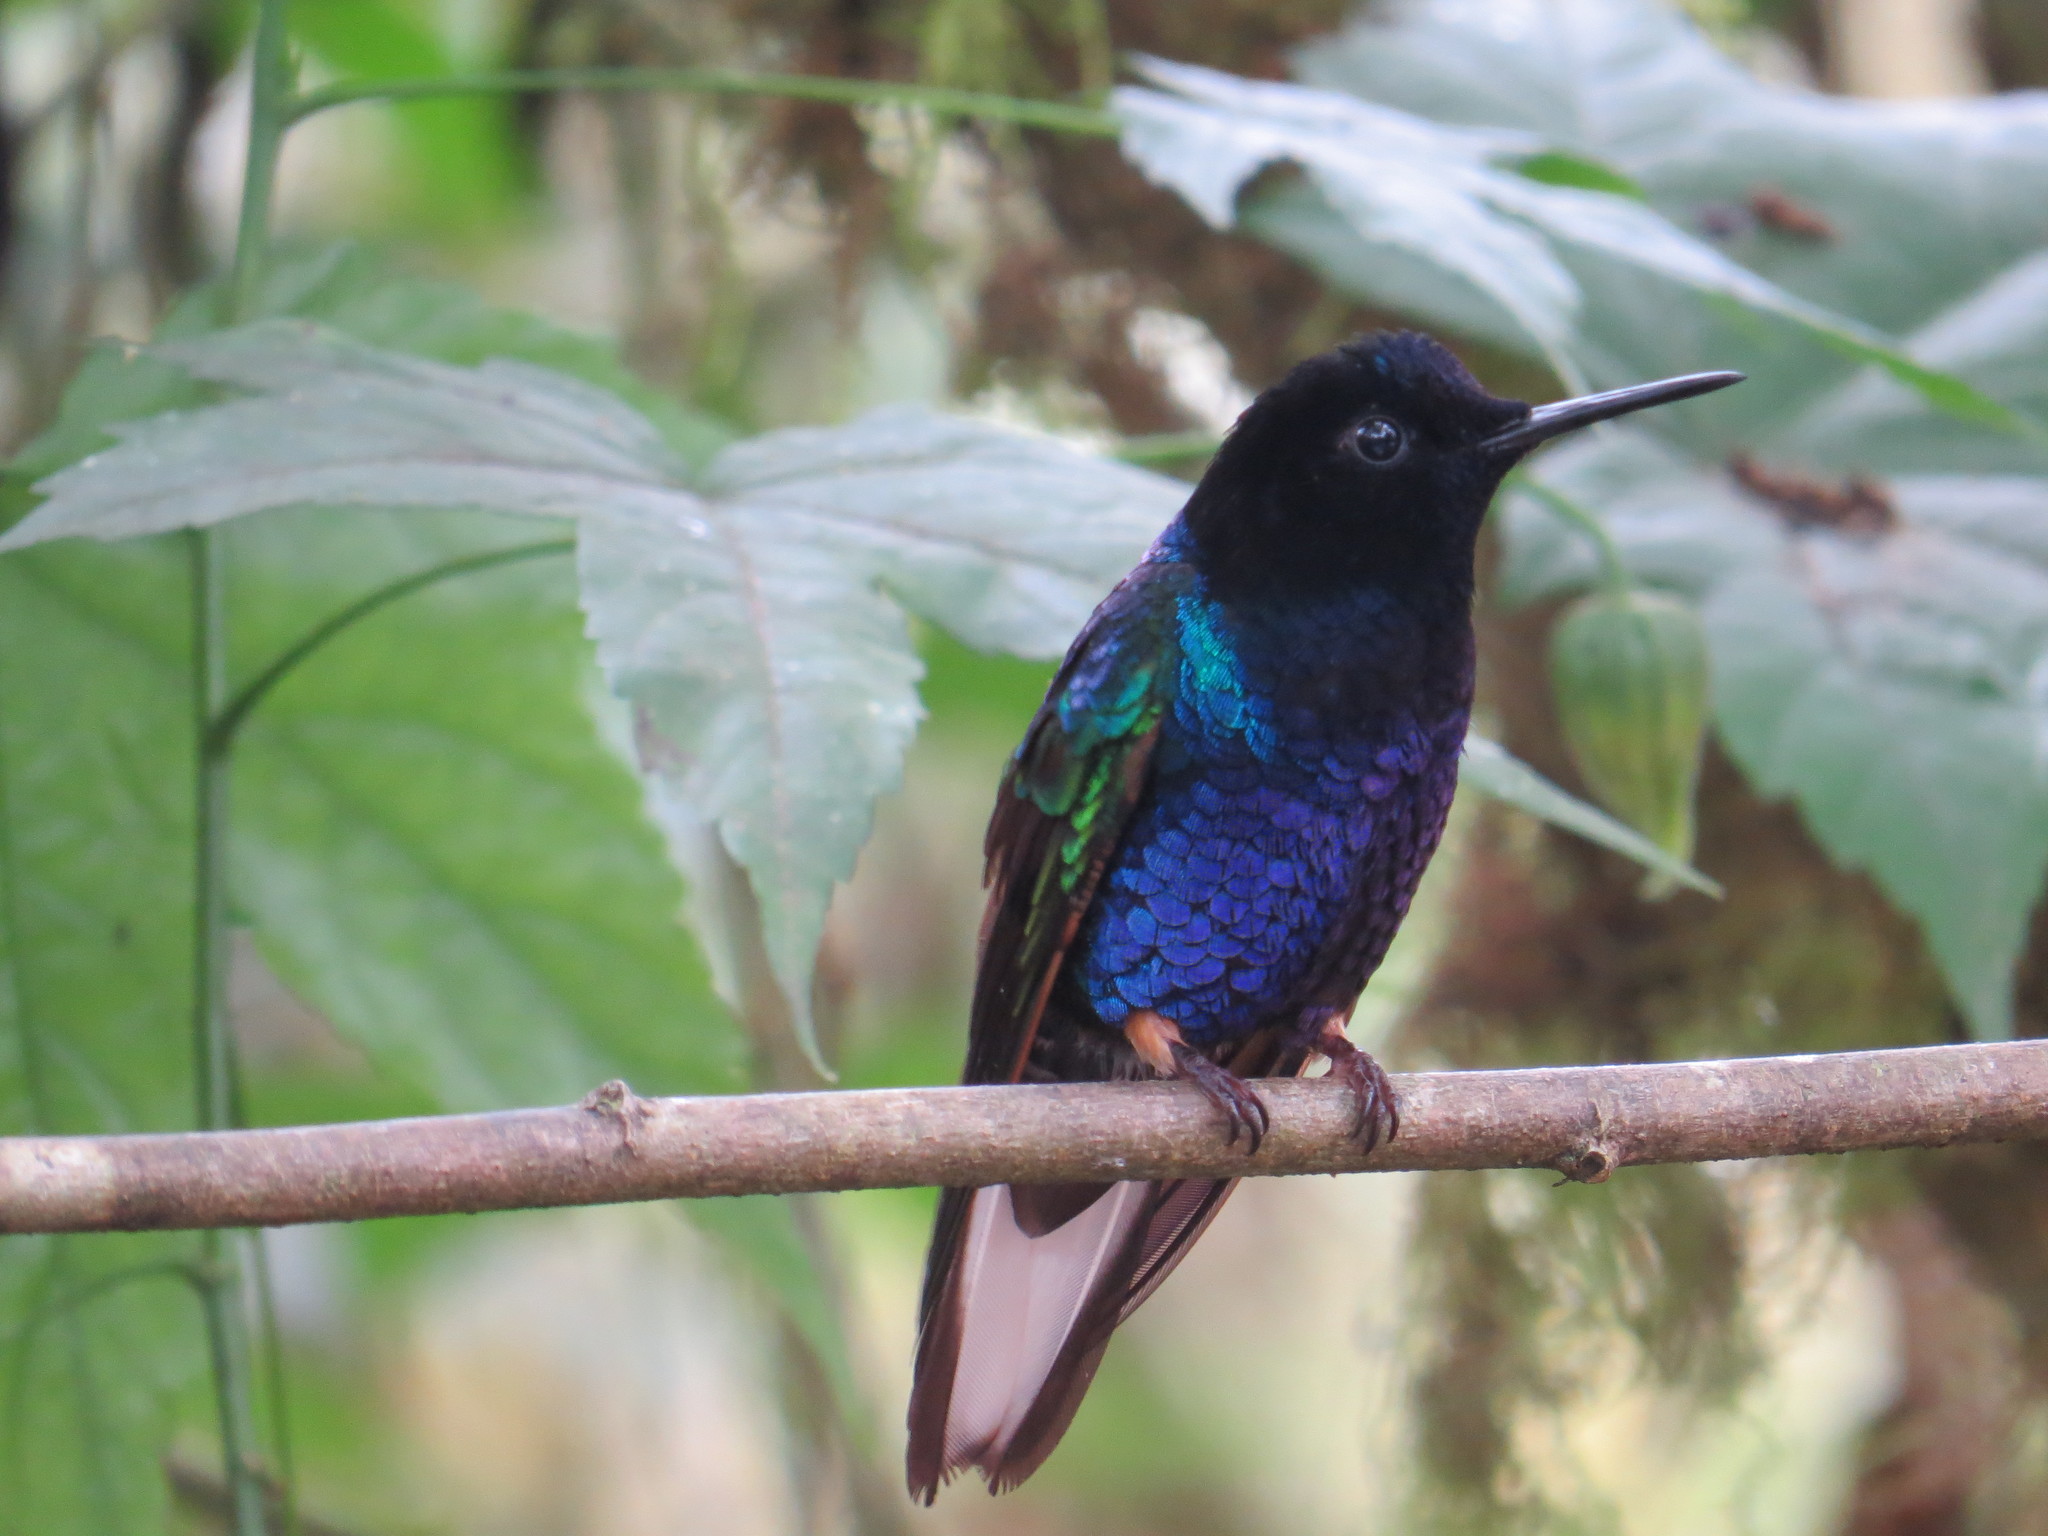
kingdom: Animalia
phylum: Chordata
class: Aves
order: Apodiformes
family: Trochilidae
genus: Boissonneaua
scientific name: Boissonneaua jardini
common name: Velvet-purple coronet
